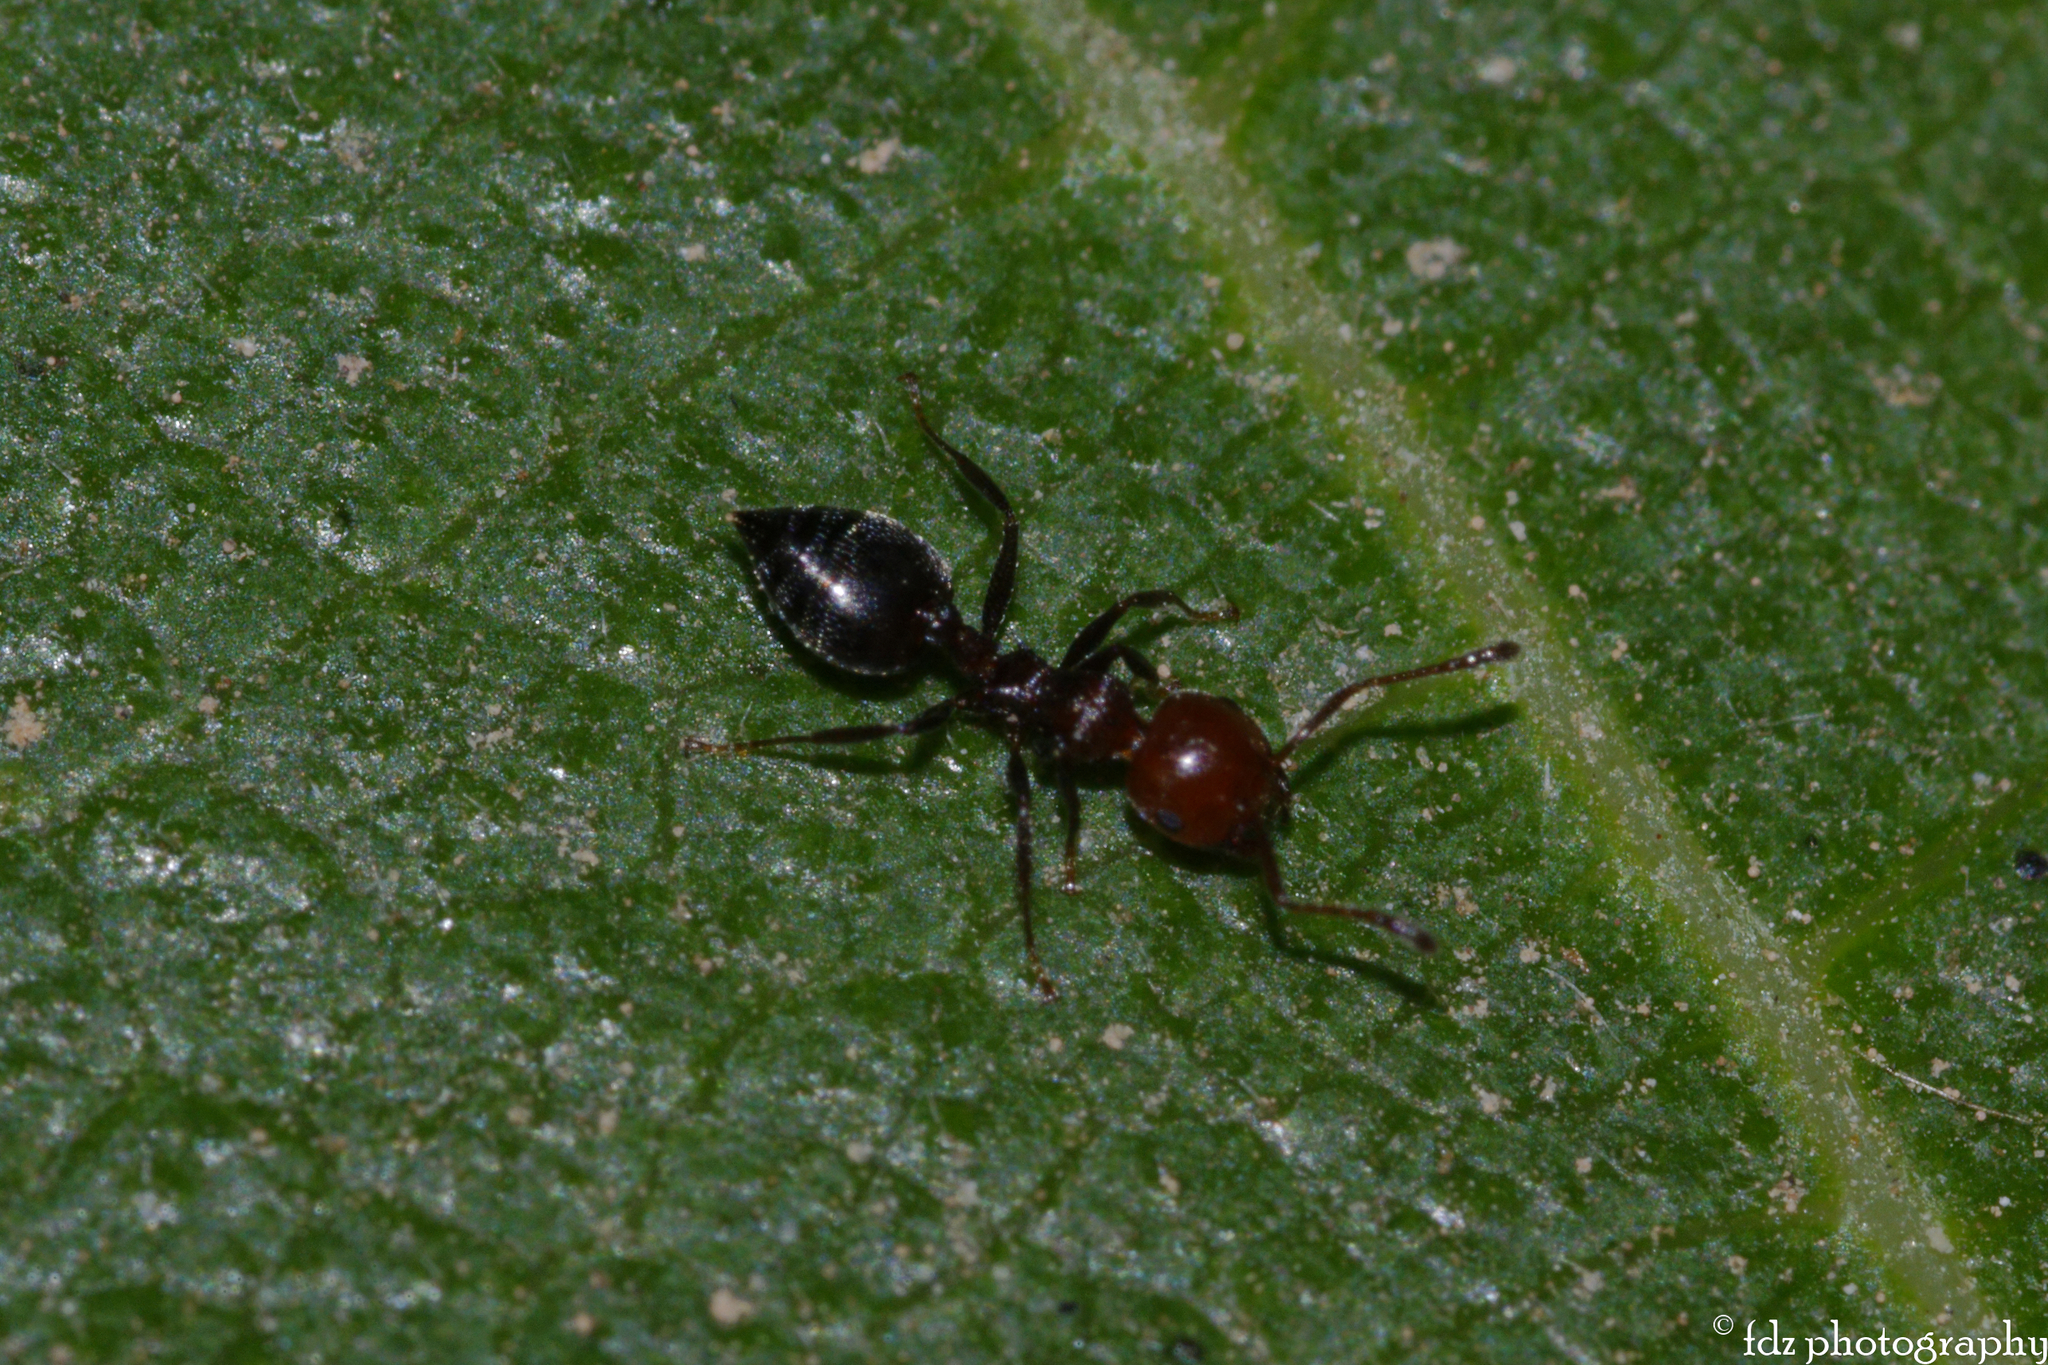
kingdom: Animalia
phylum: Arthropoda
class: Insecta
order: Hymenoptera
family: Formicidae
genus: Crematogaster
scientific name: Crematogaster scutellaris
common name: Fourmi du liège
